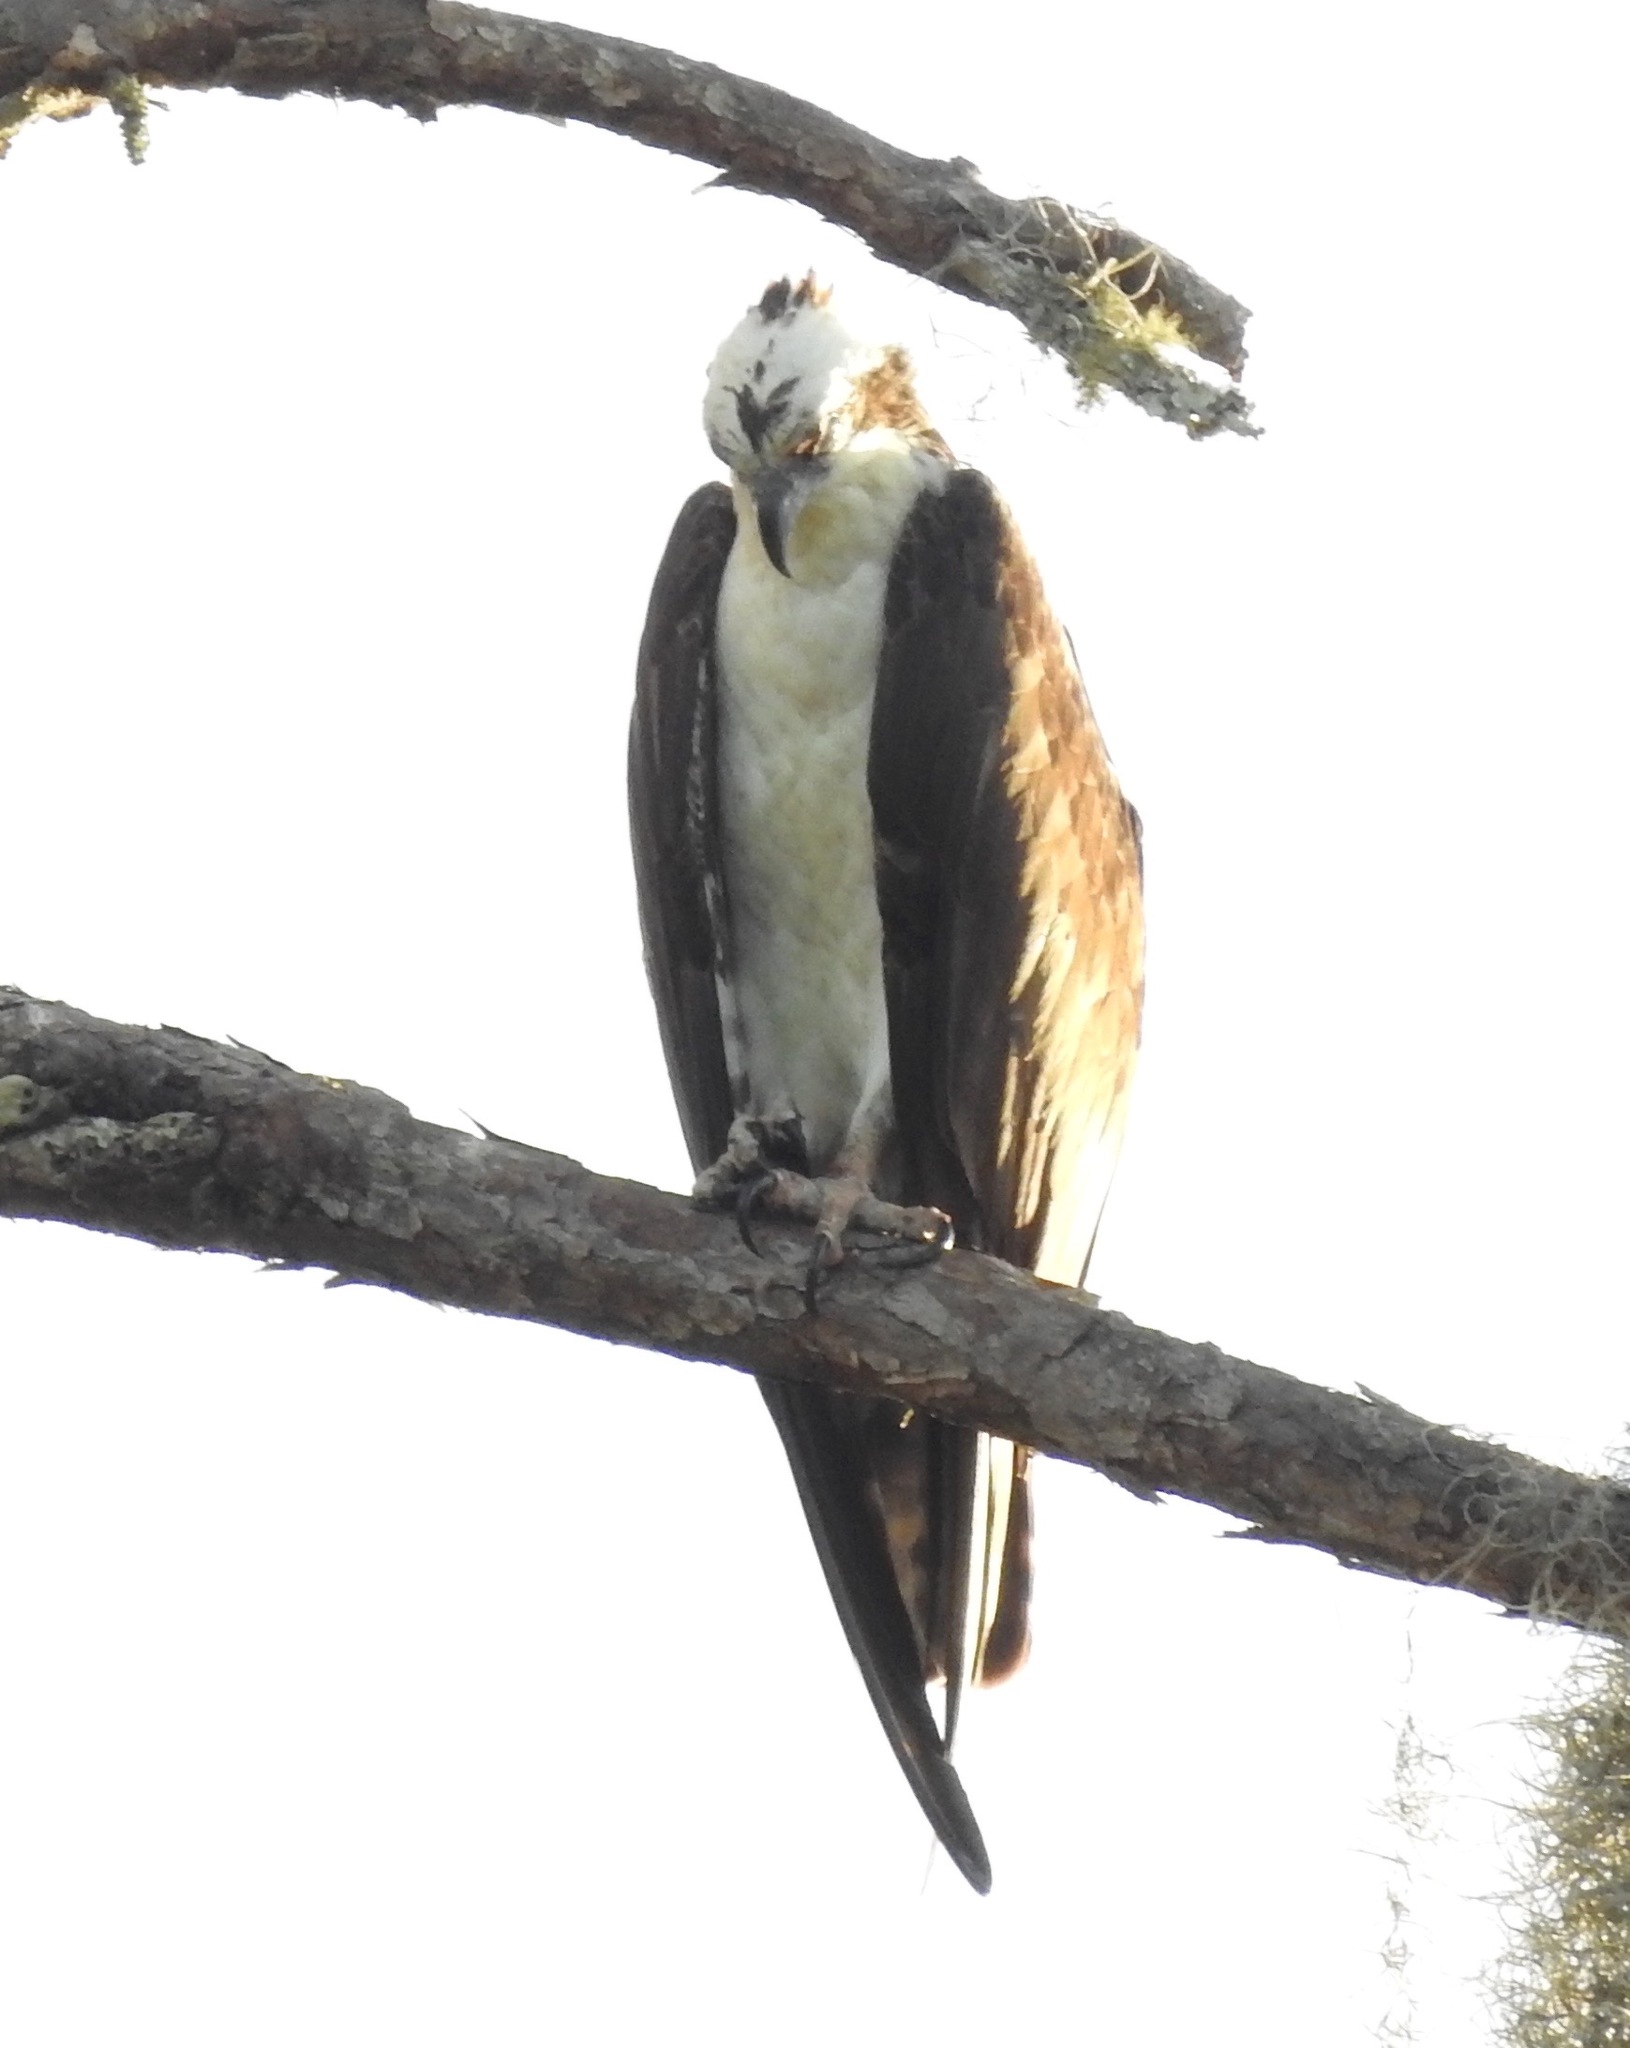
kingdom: Animalia
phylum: Chordata
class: Aves
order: Accipitriformes
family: Pandionidae
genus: Pandion
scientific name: Pandion haliaetus
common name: Osprey
